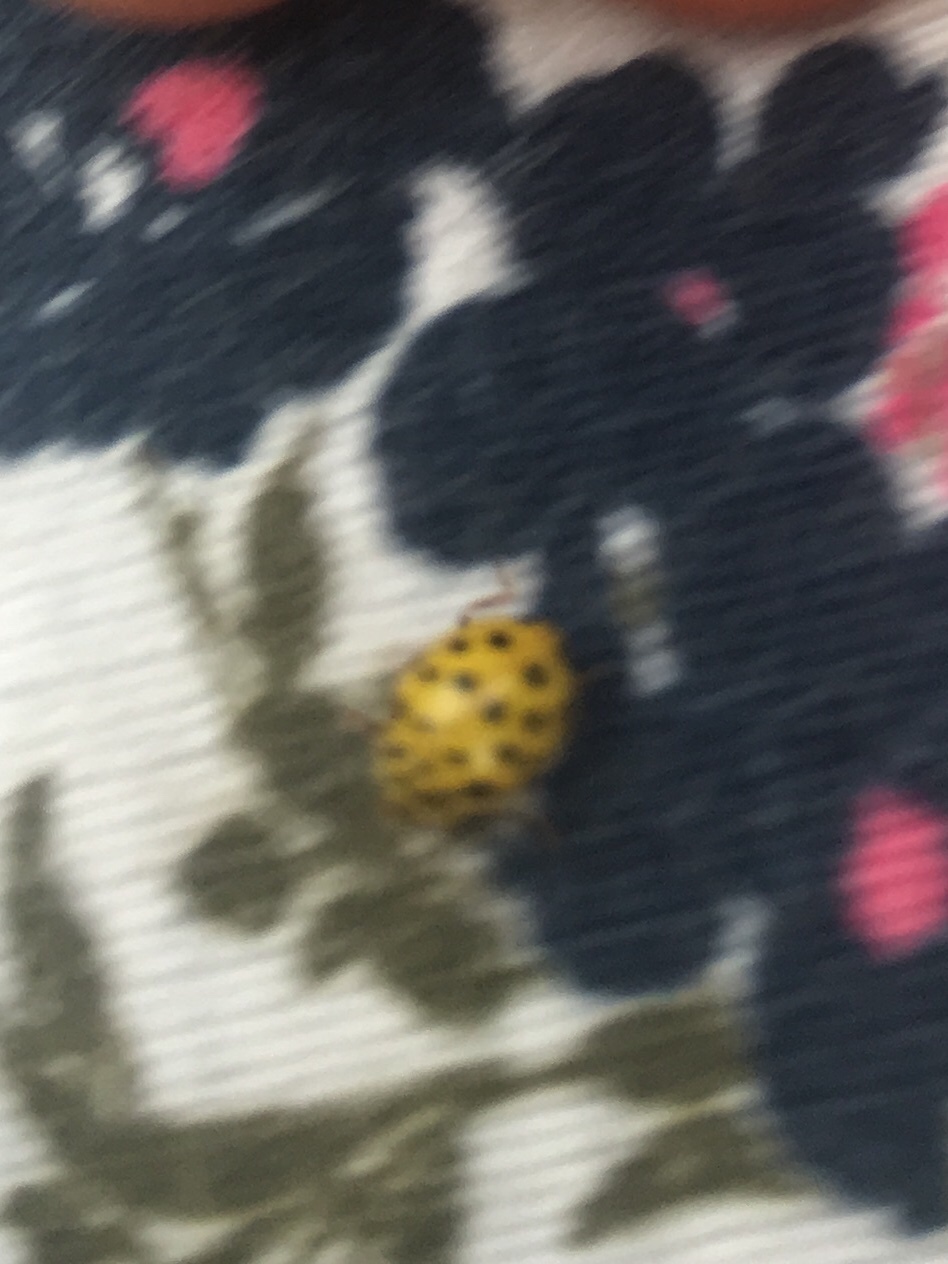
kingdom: Animalia
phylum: Arthropoda
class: Insecta
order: Coleoptera
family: Coccinellidae
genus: Psyllobora
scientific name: Psyllobora vigintiduopunctata
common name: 22-spot ladybird
